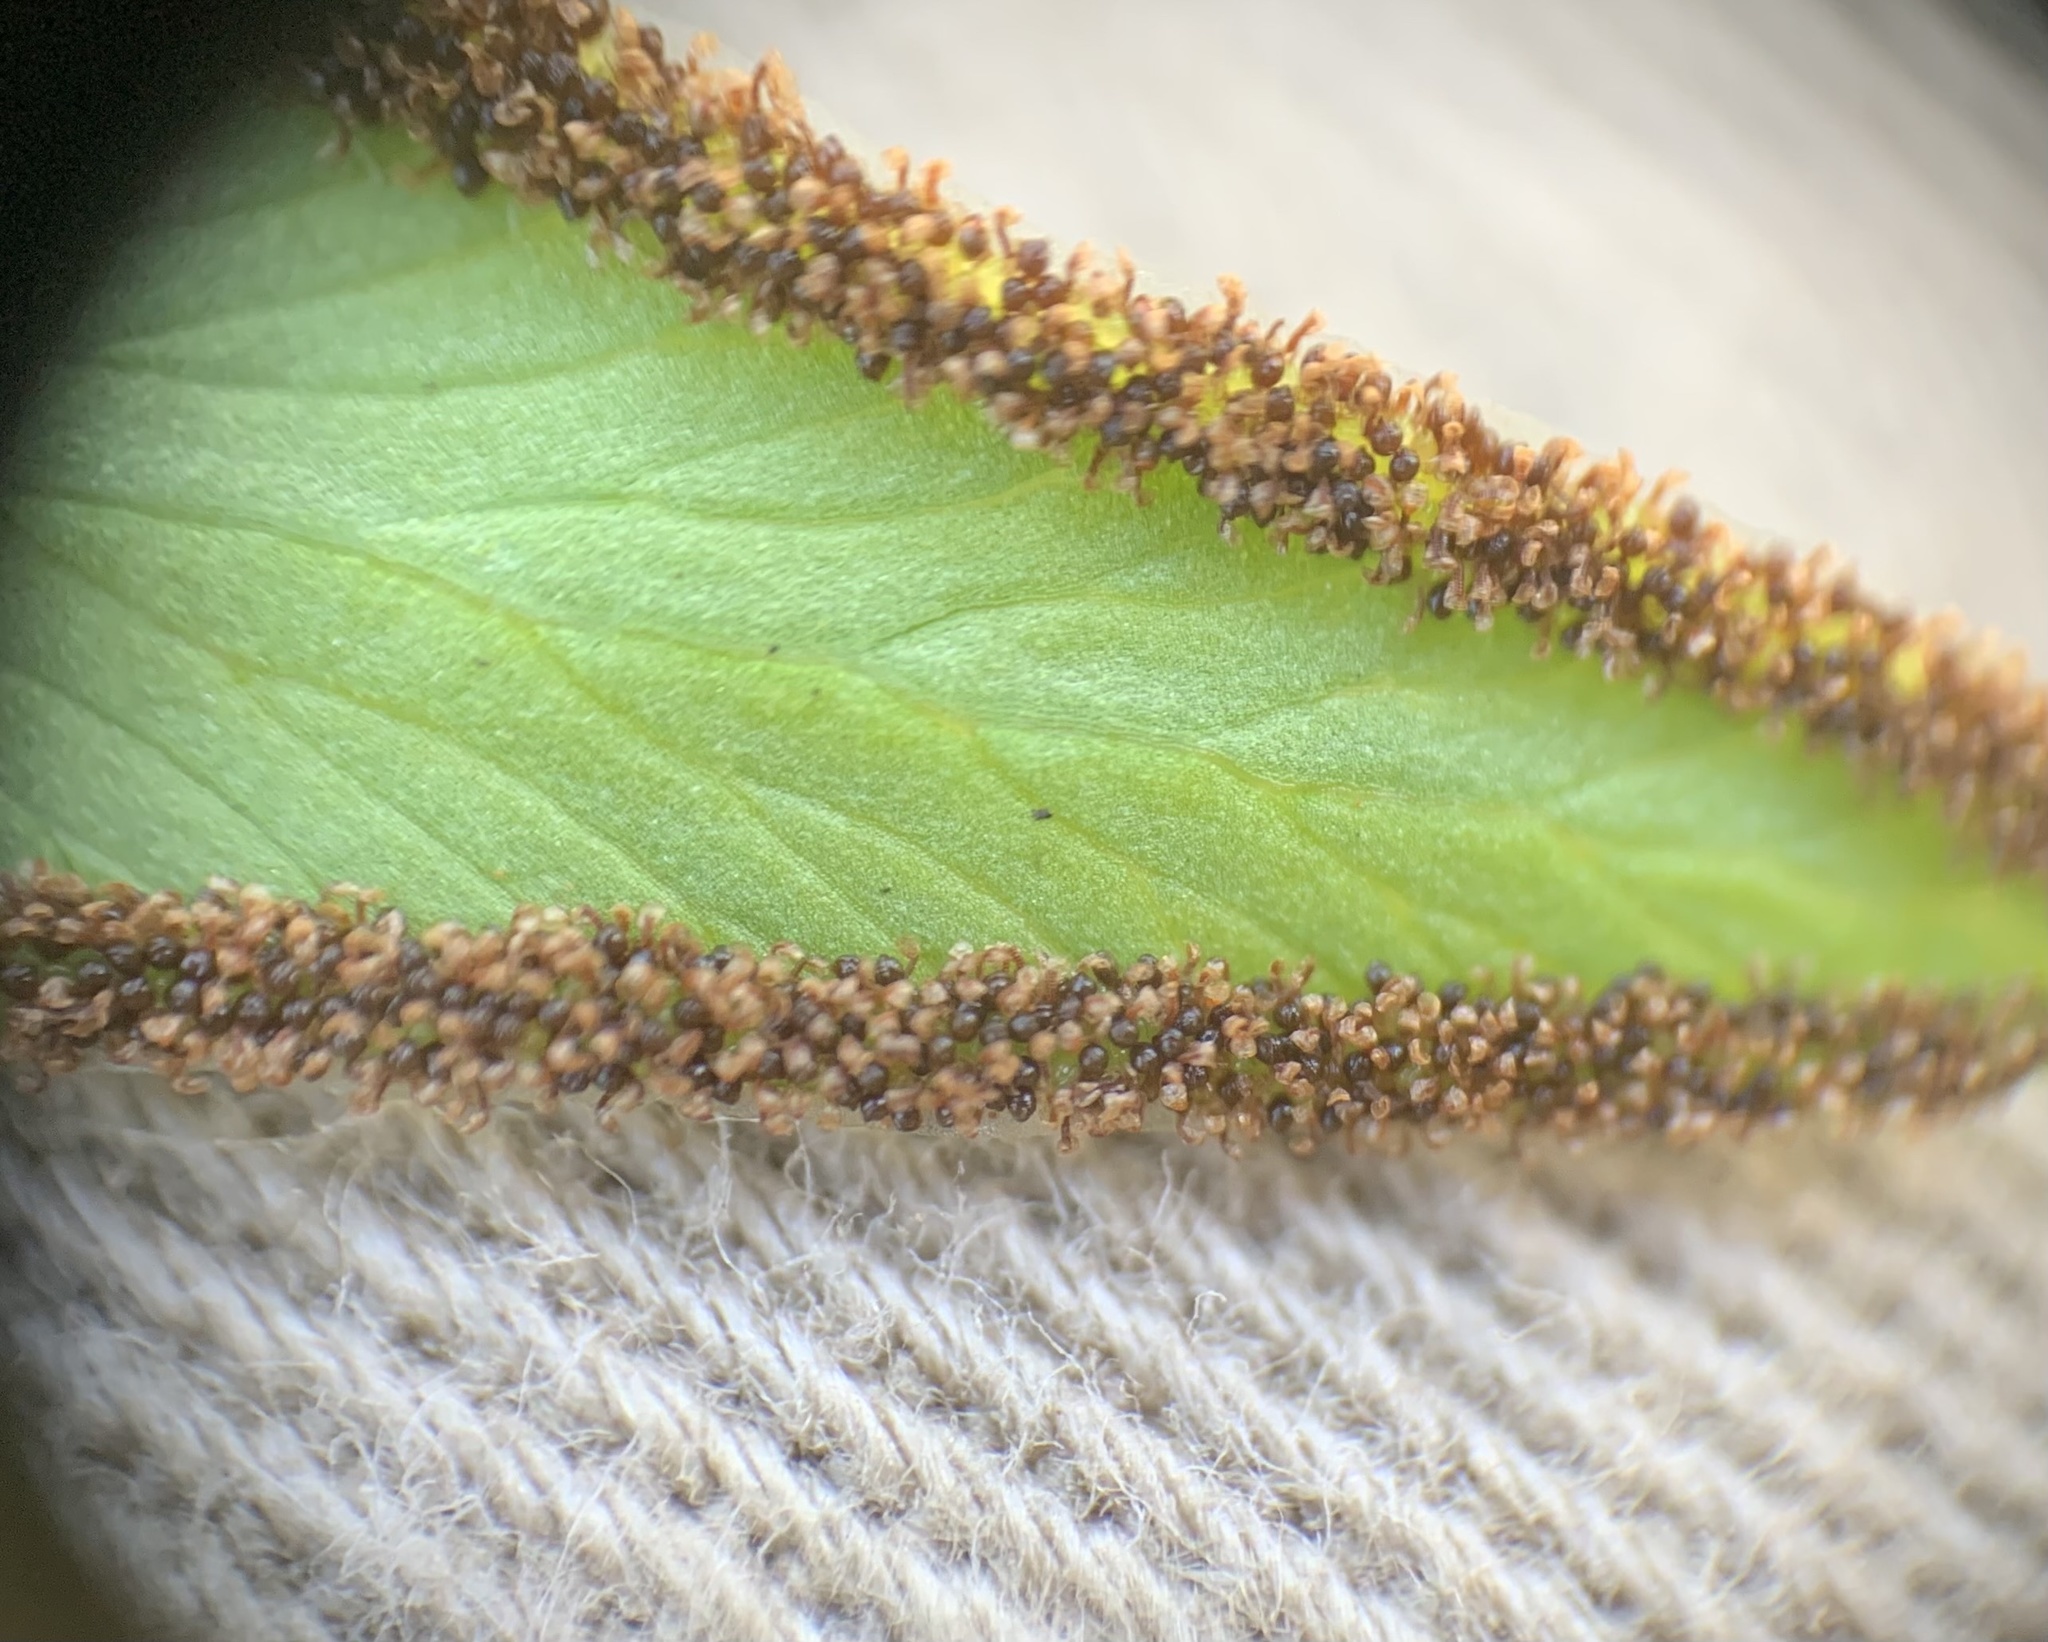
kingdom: Plantae
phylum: Tracheophyta
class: Polypodiopsida
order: Polypodiales
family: Pteridaceae
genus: Cheilanthes
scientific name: Cheilanthes viridis
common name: Green cliffbrake
